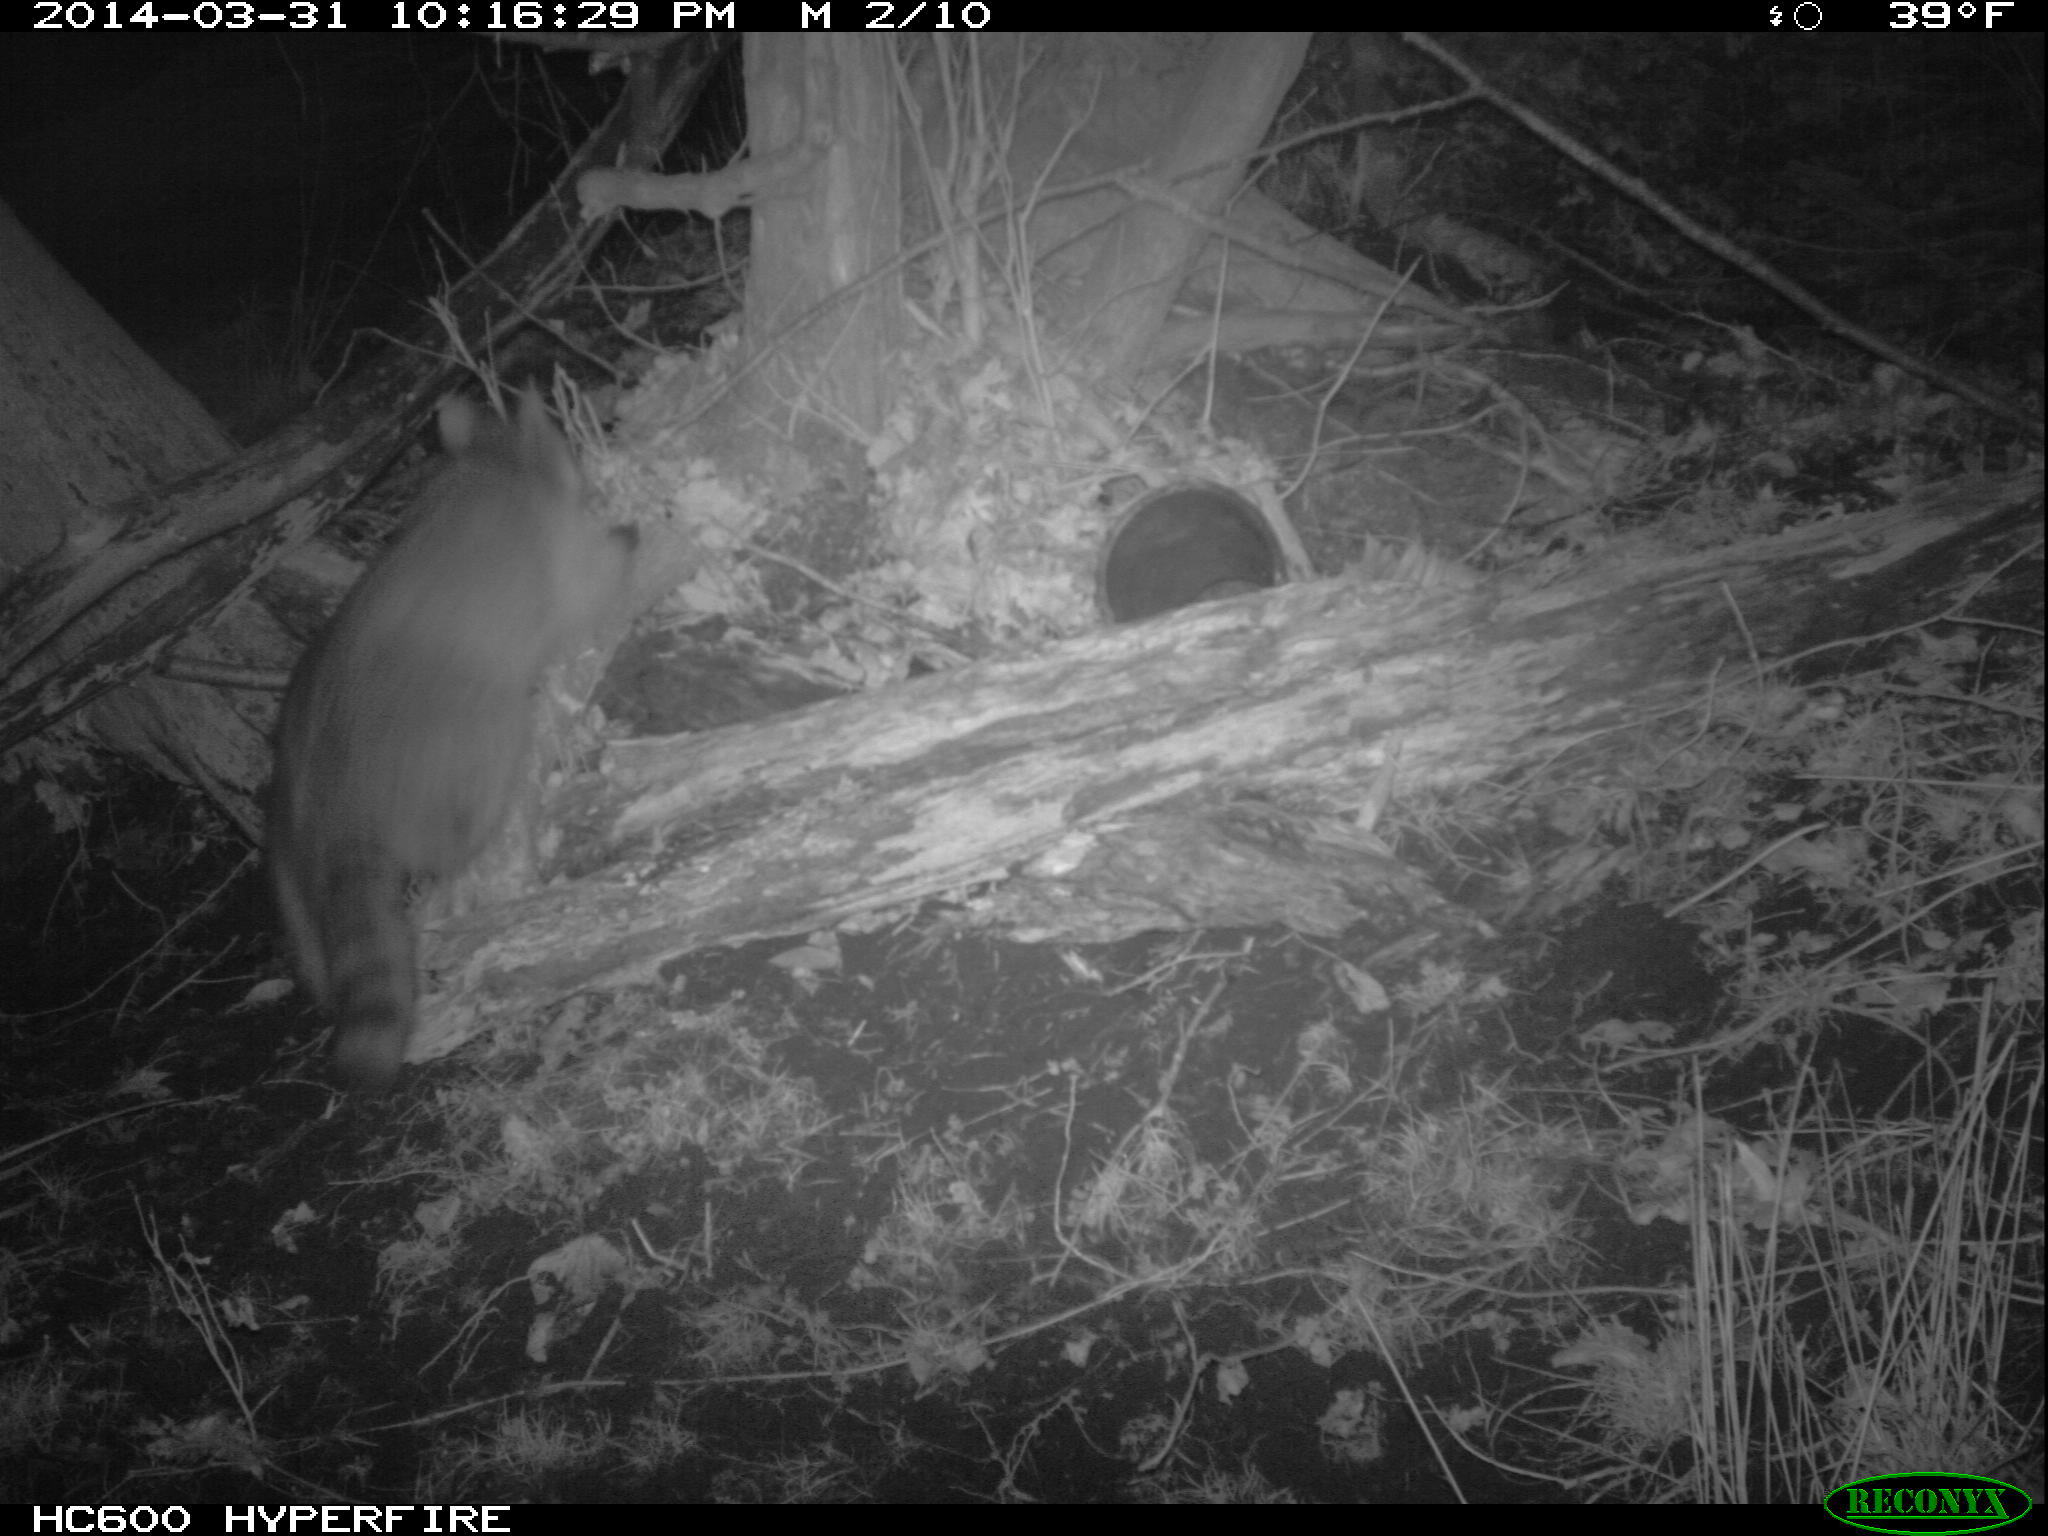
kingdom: Animalia
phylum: Chordata
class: Mammalia
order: Carnivora
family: Procyonidae
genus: Procyon
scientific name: Procyon lotor
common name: Raccoon
